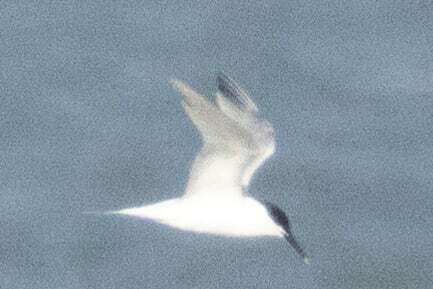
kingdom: Animalia
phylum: Chordata
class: Aves
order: Charadriiformes
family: Laridae
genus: Thalasseus
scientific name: Thalasseus sandvicensis
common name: Sandwich tern
